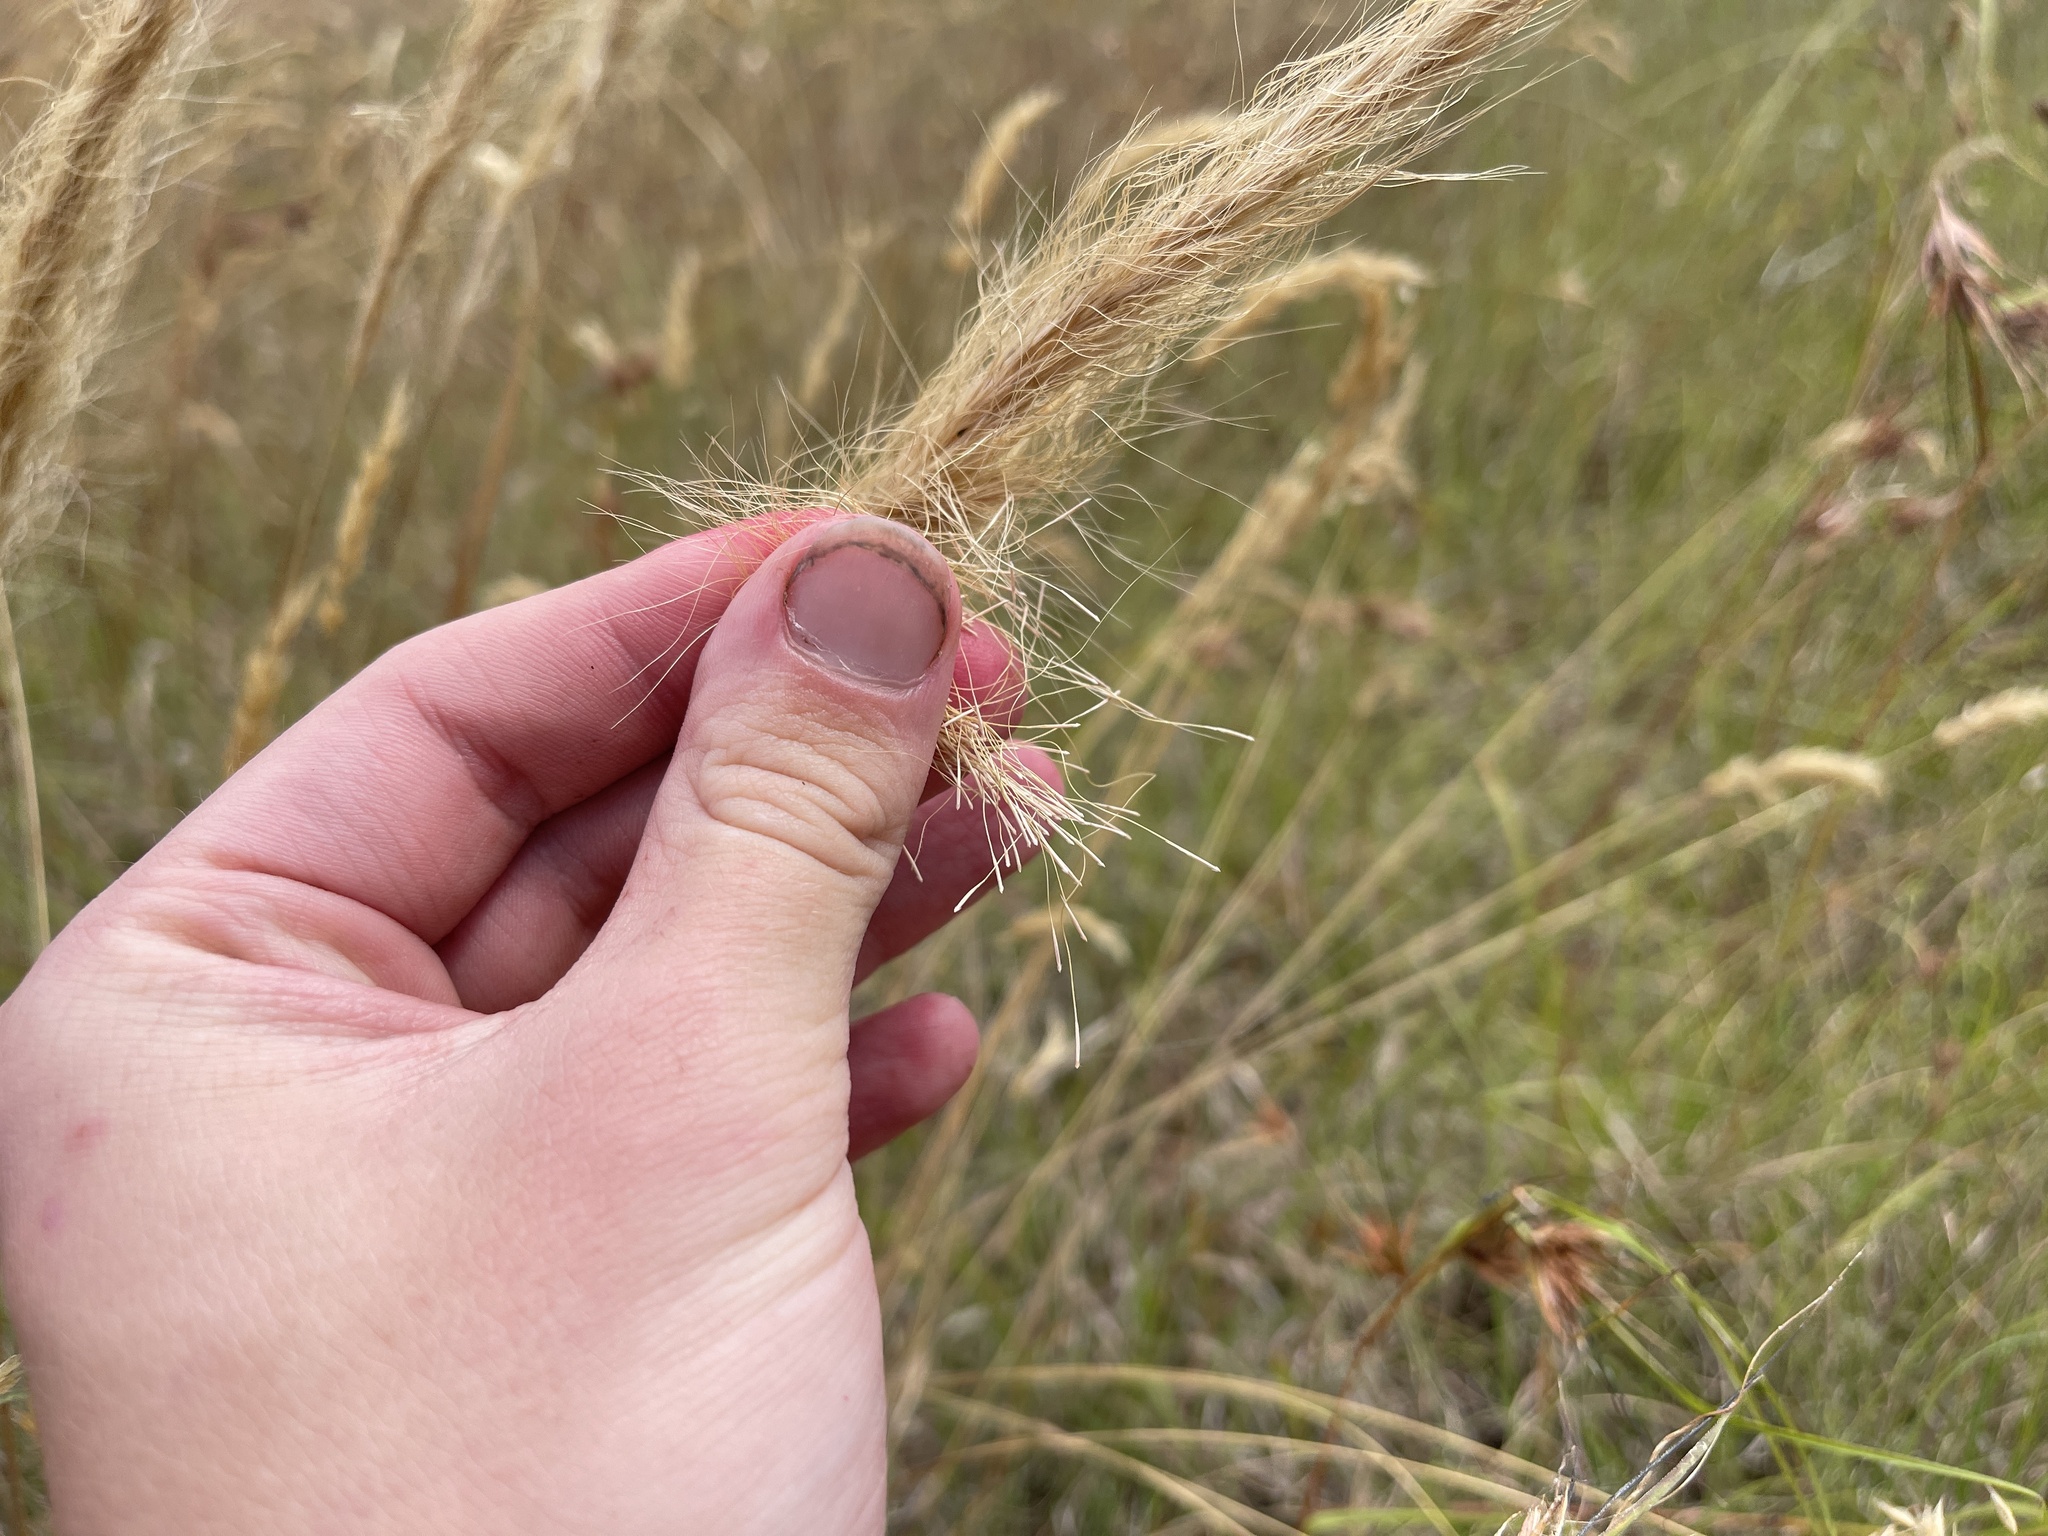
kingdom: Plantae
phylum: Tracheophyta
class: Liliopsida
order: Poales
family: Poaceae
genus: Dichelachne
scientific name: Dichelachne crinita
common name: Clovenfoot plumegrass
